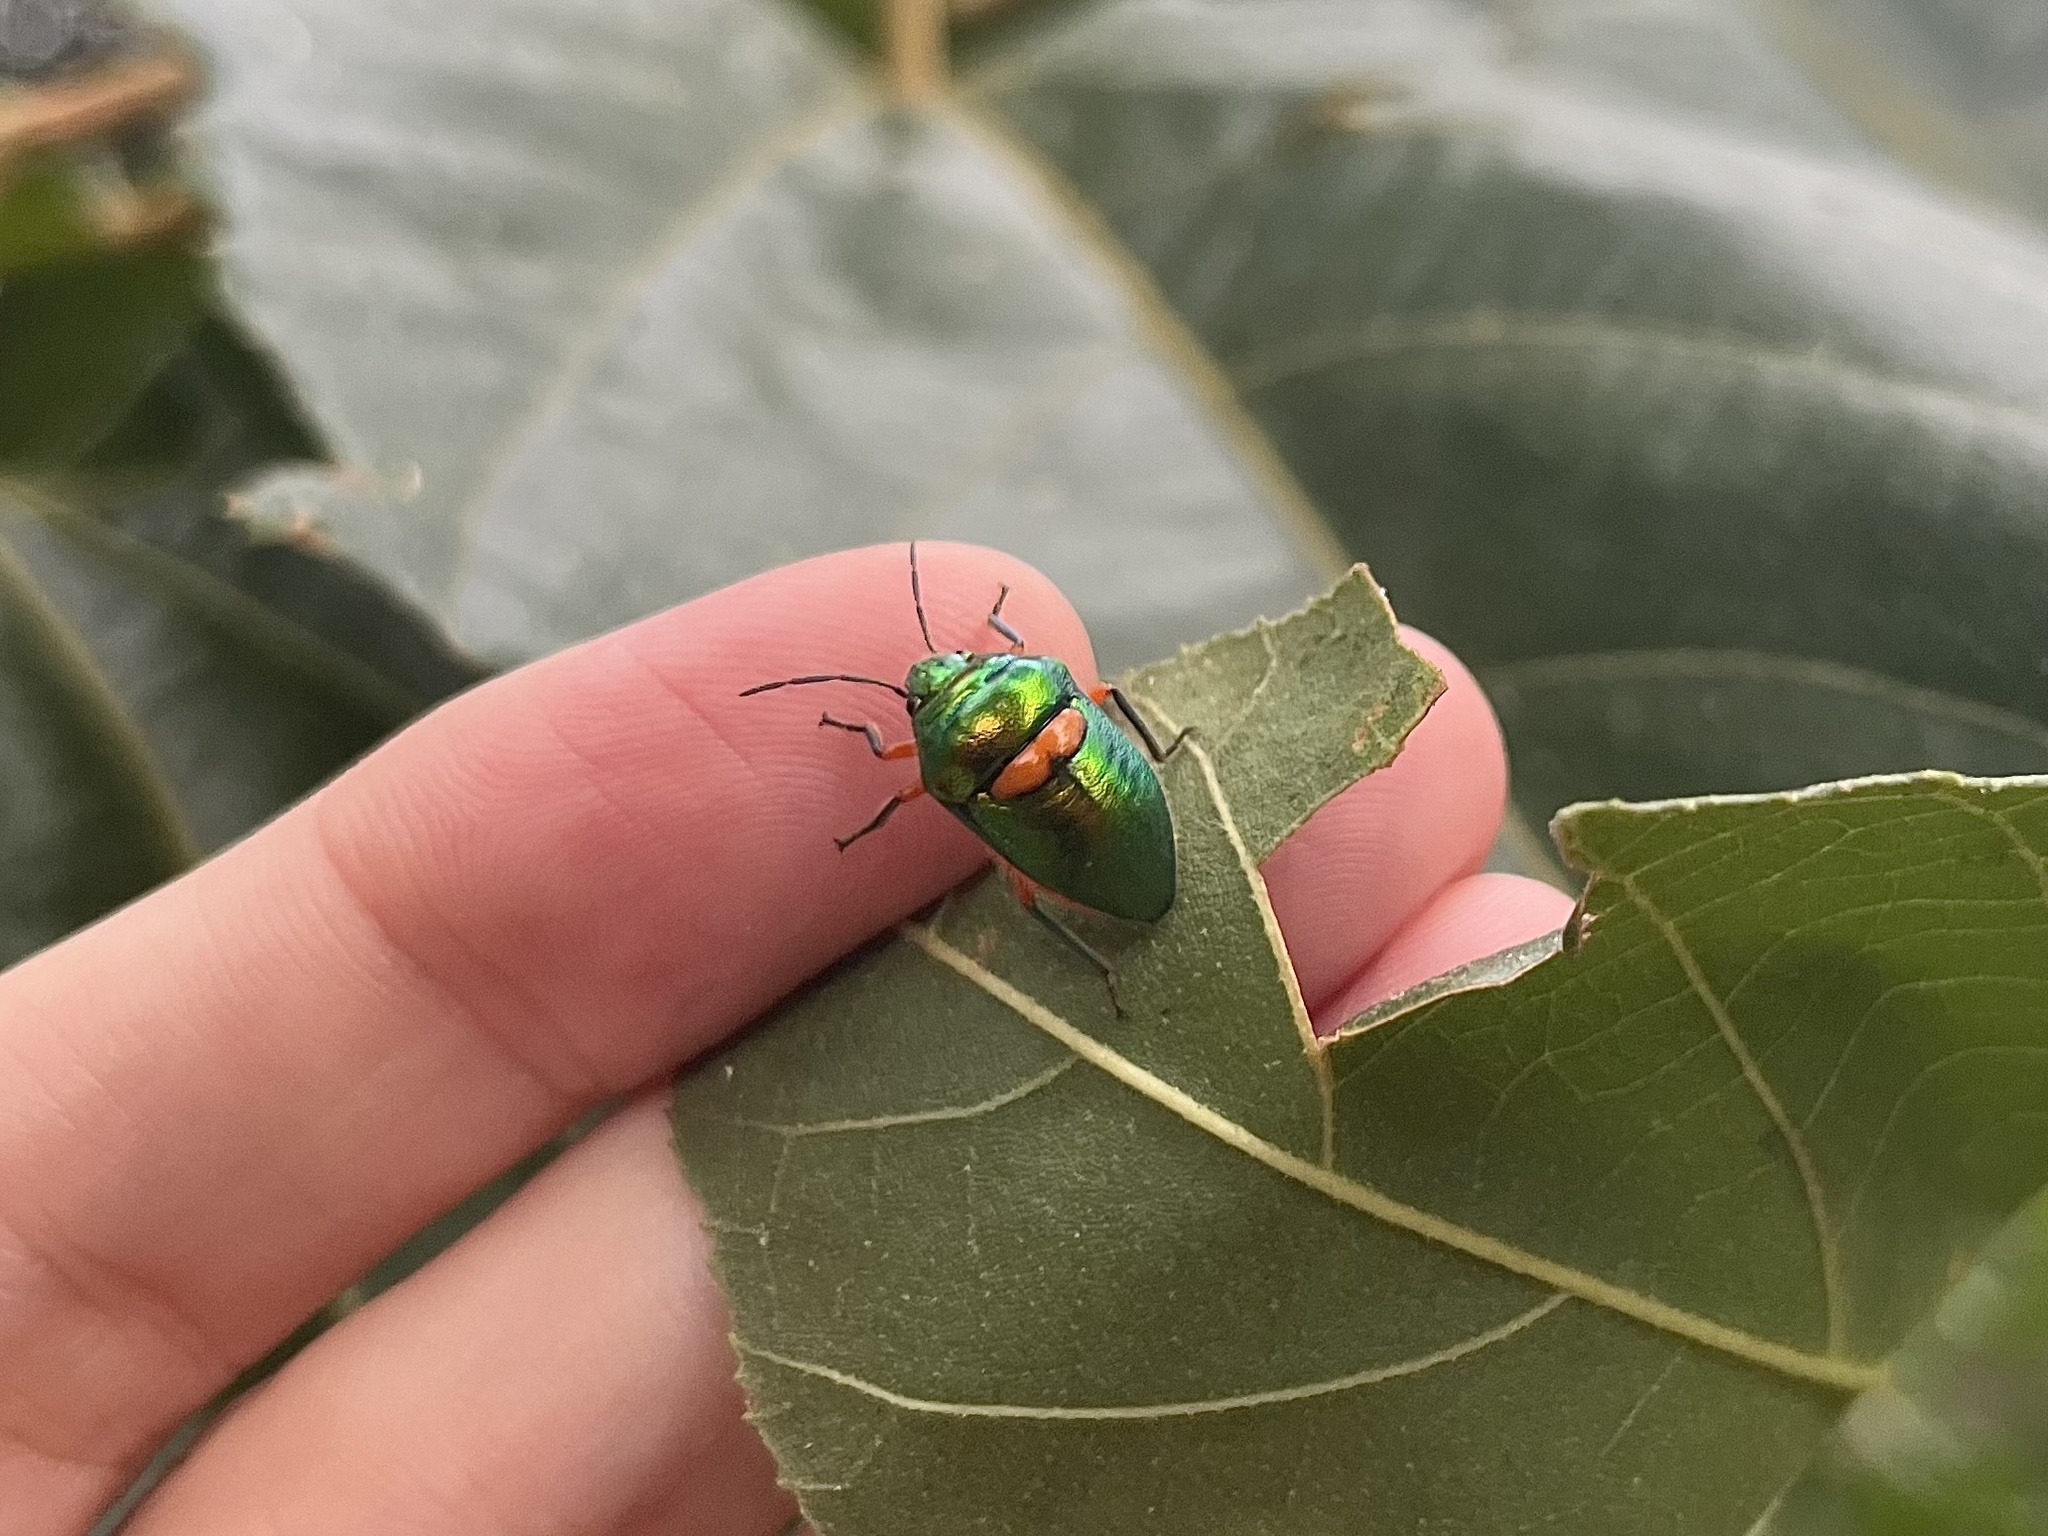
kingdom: Animalia
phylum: Arthropoda
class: Insecta
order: Hemiptera
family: Scutelleridae
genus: Lampromicra
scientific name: Lampromicra senator
